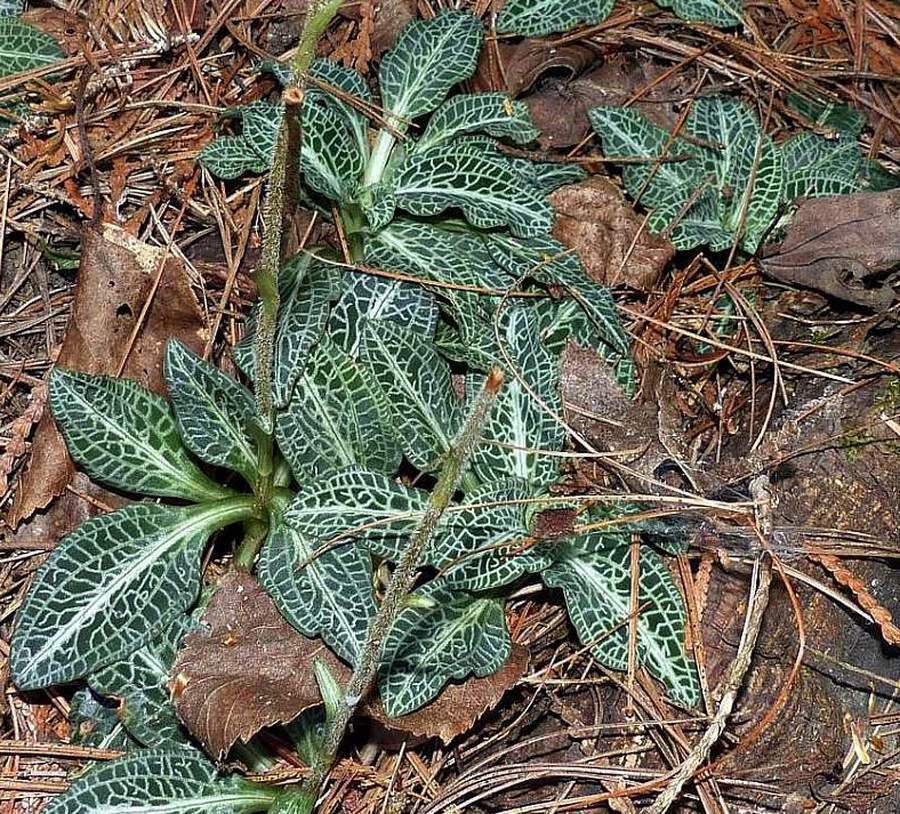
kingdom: Plantae
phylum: Tracheophyta
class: Liliopsida
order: Asparagales
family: Orchidaceae
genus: Goodyera
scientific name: Goodyera pubescens
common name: Downy rattlesnake-plantain
